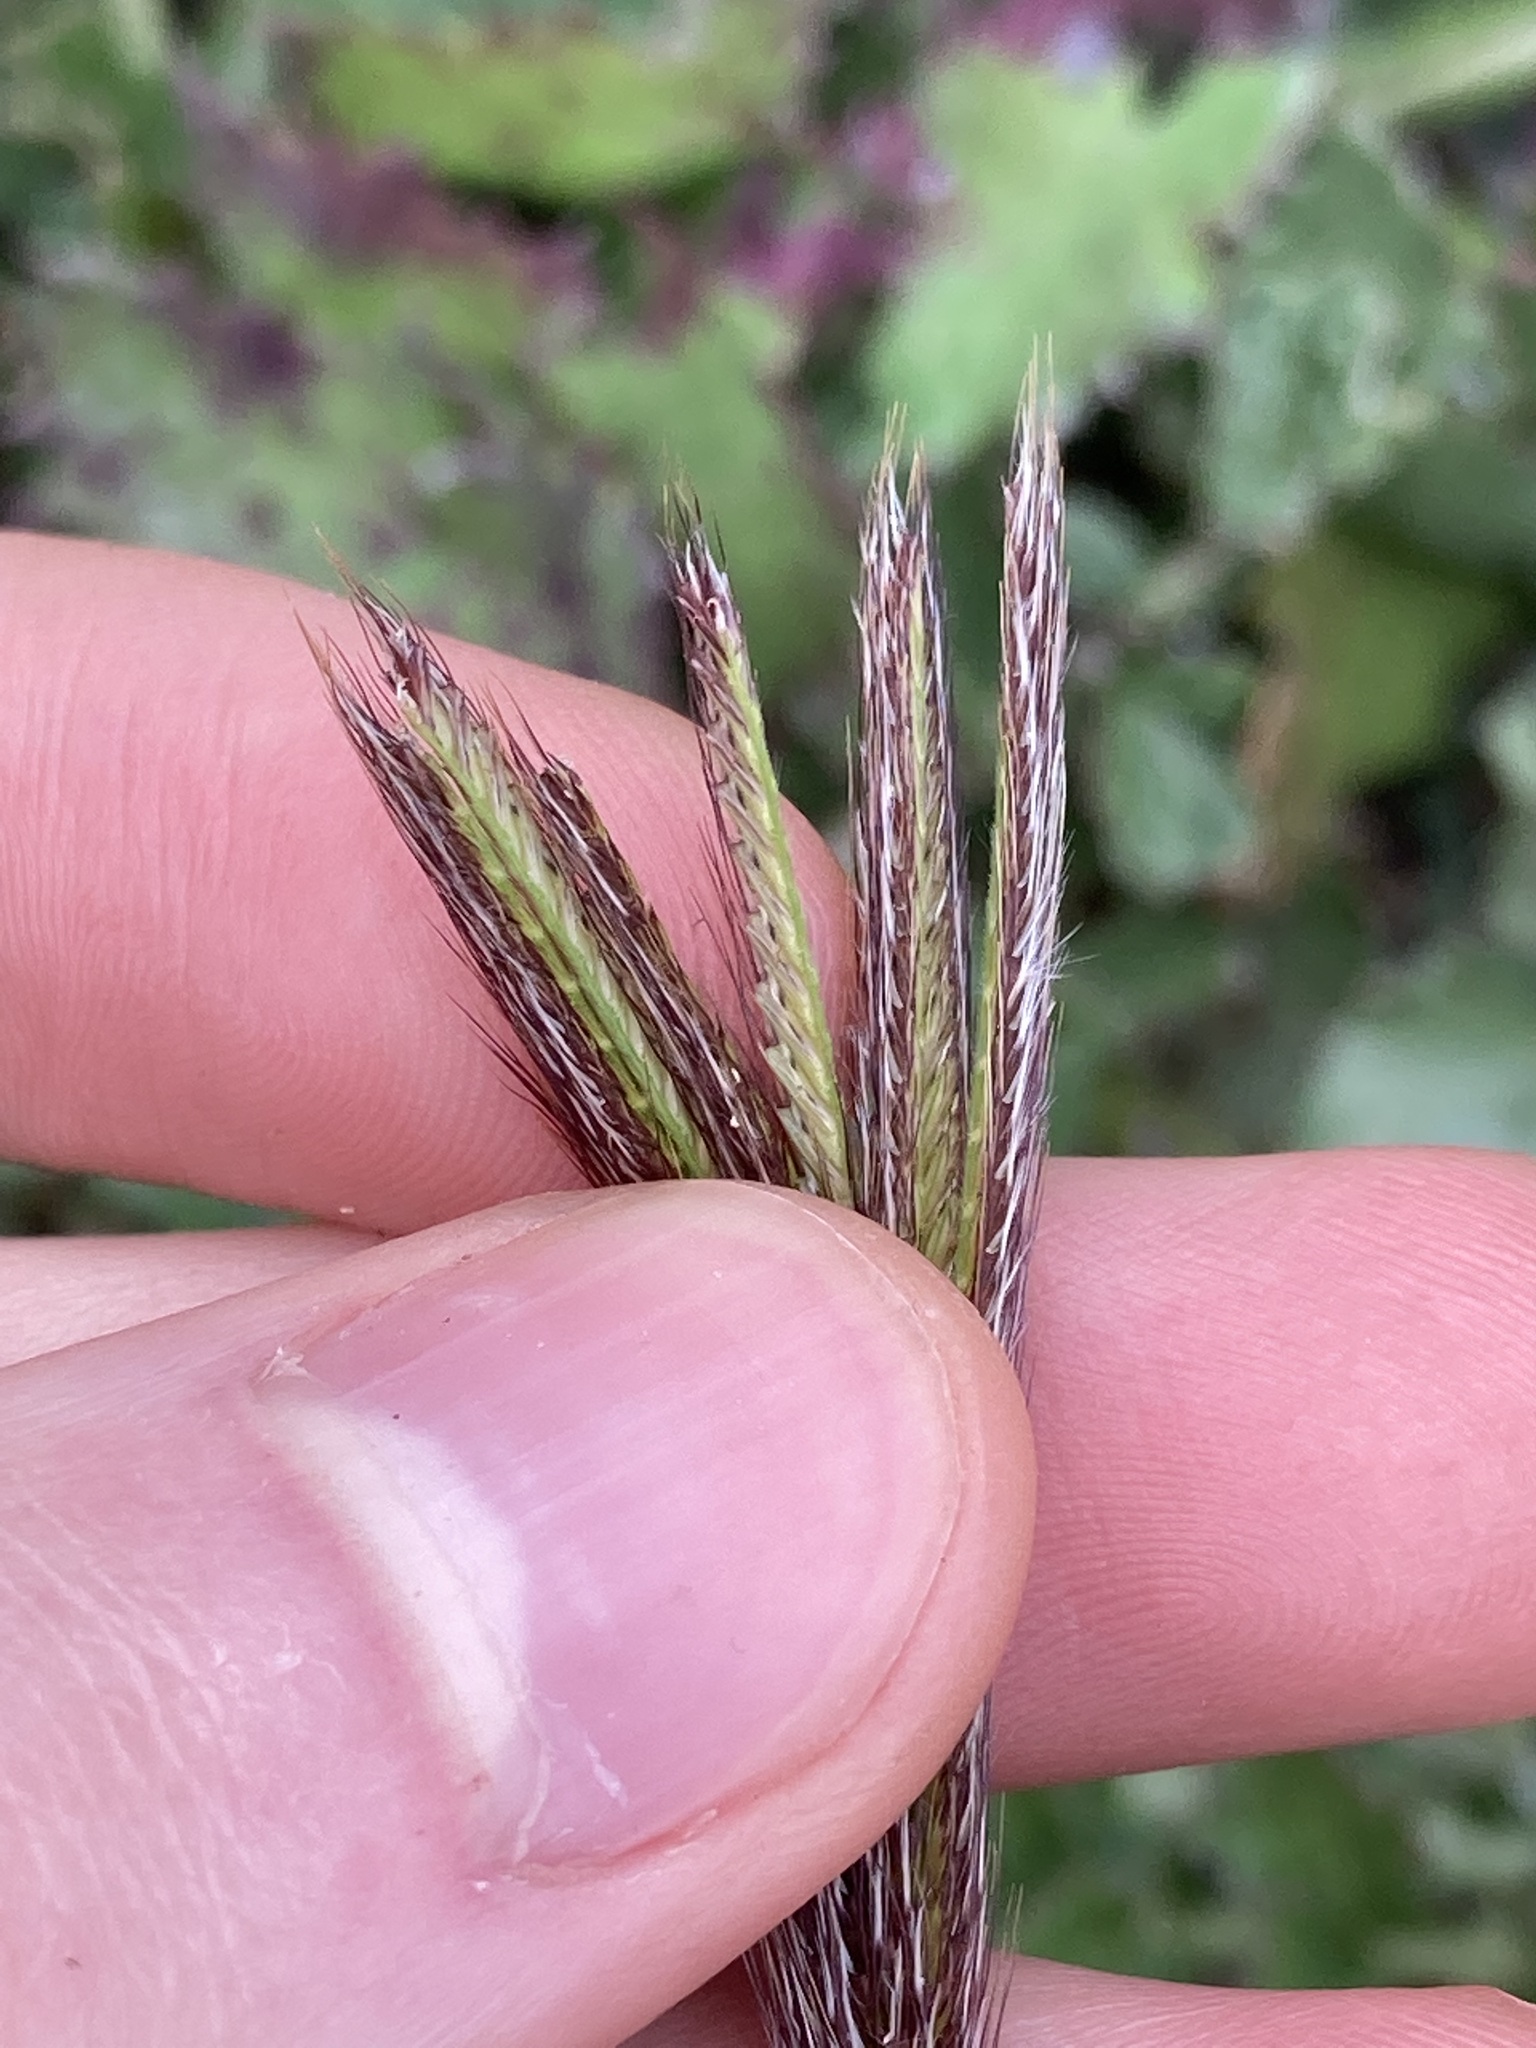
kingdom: Plantae
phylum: Tracheophyta
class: Liliopsida
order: Poales
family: Poaceae
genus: Chloris
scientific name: Chloris virgata
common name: Feathery rhodes-grass
